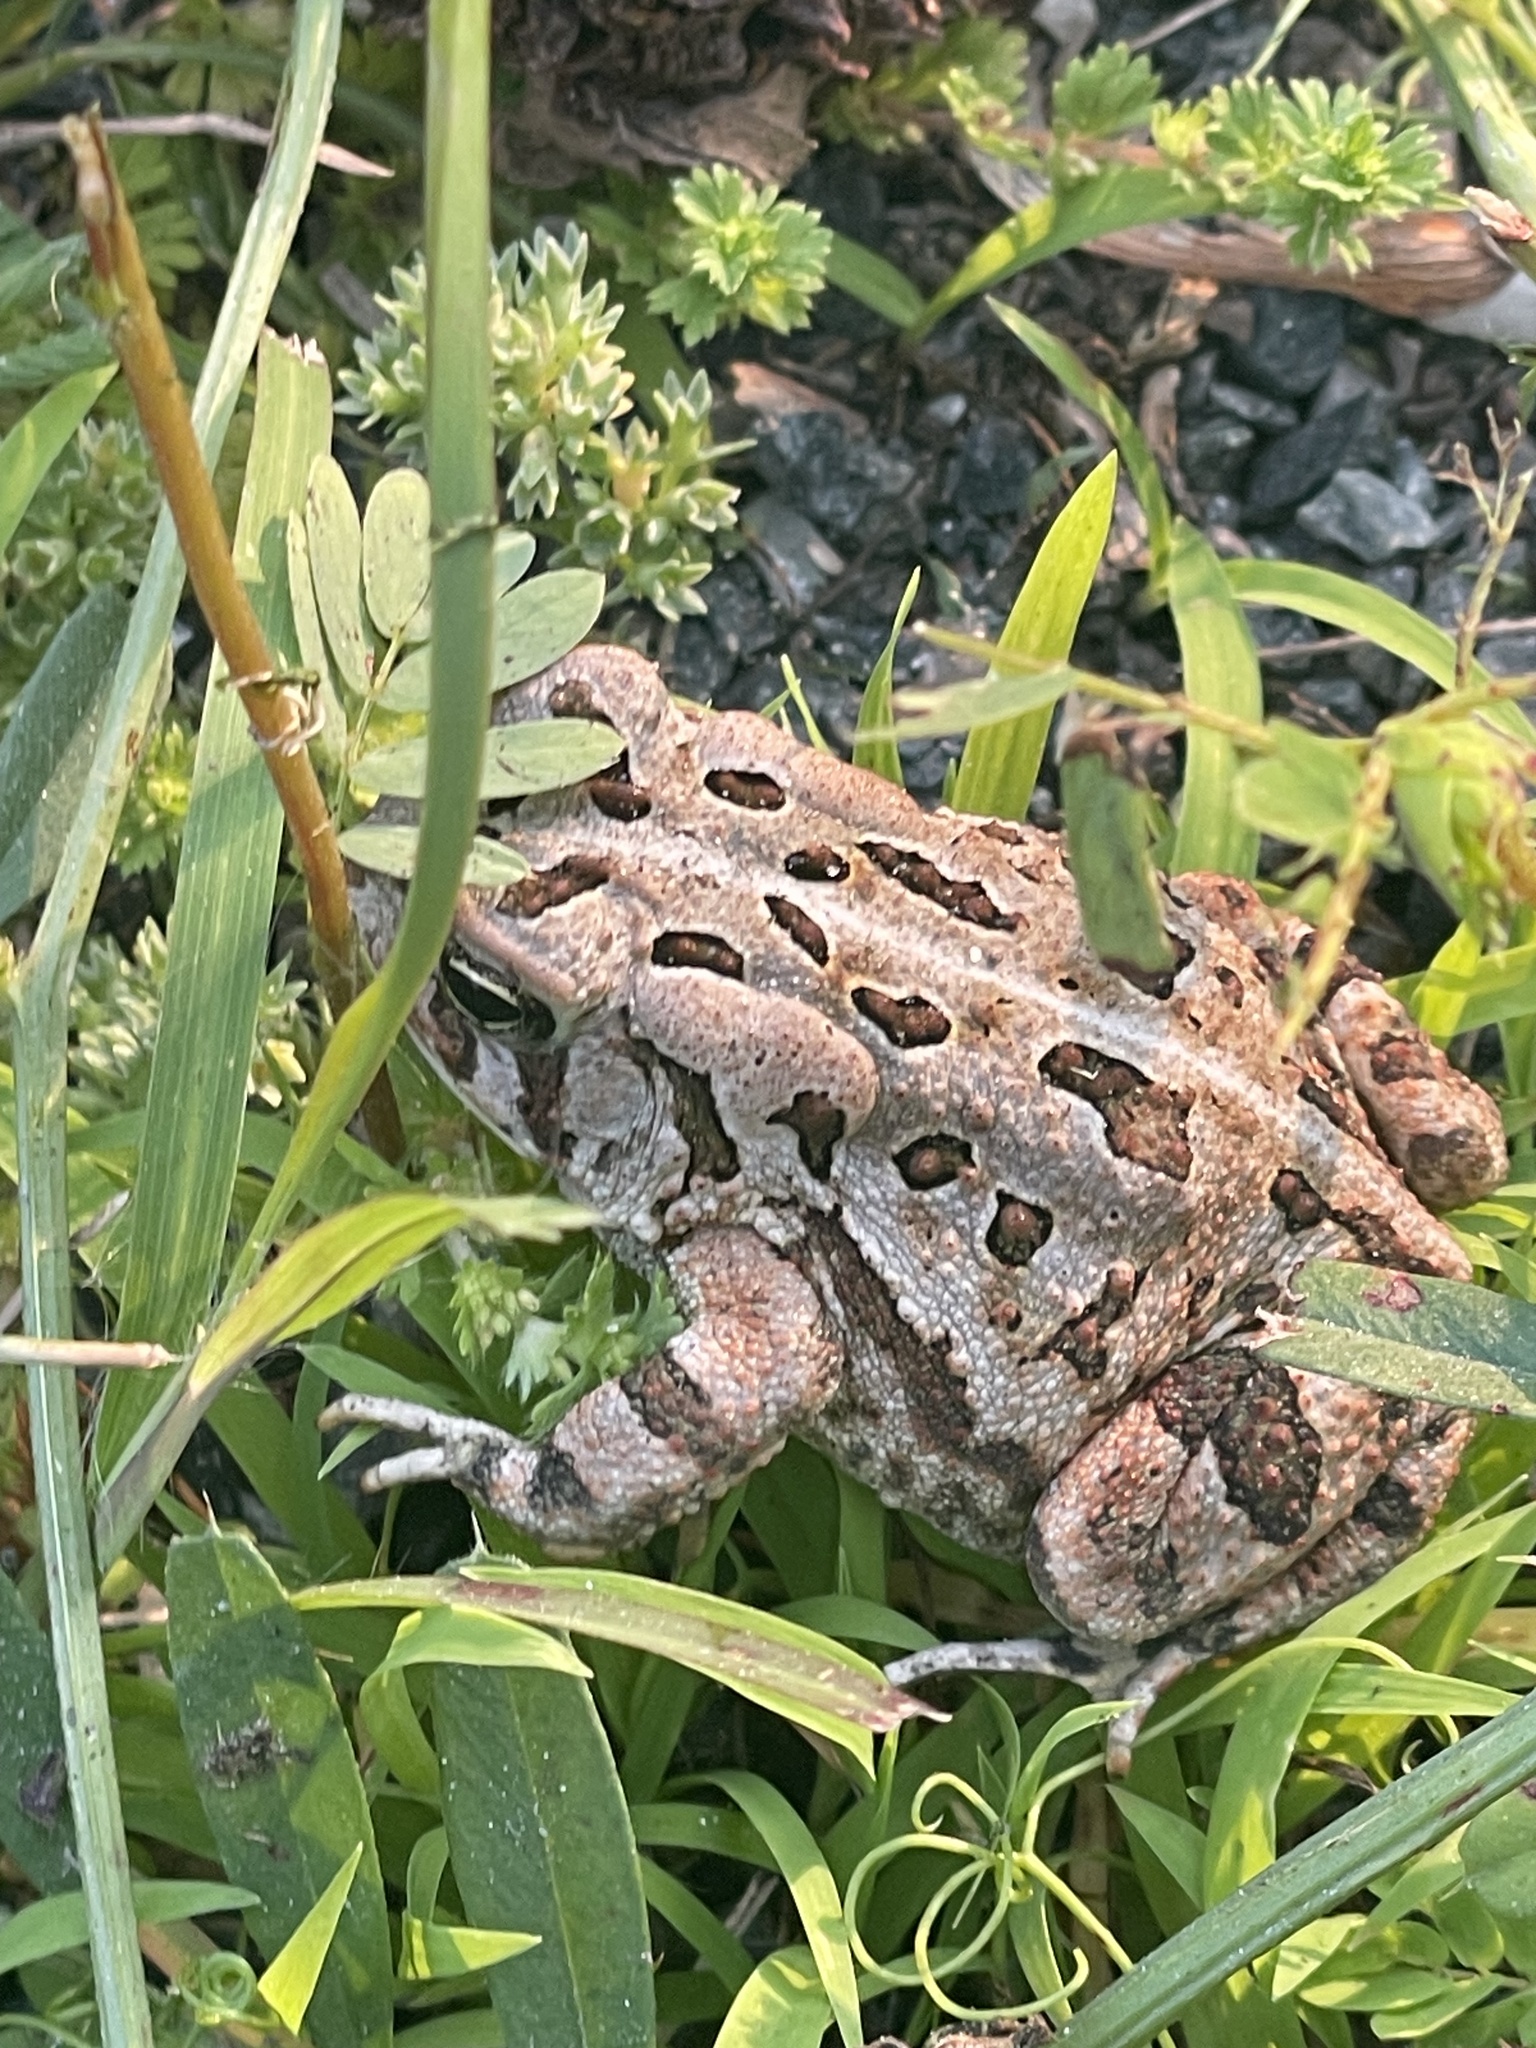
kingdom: Animalia
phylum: Chordata
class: Amphibia
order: Anura
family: Bufonidae
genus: Anaxyrus
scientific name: Anaxyrus fowleri
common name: Fowler's toad
